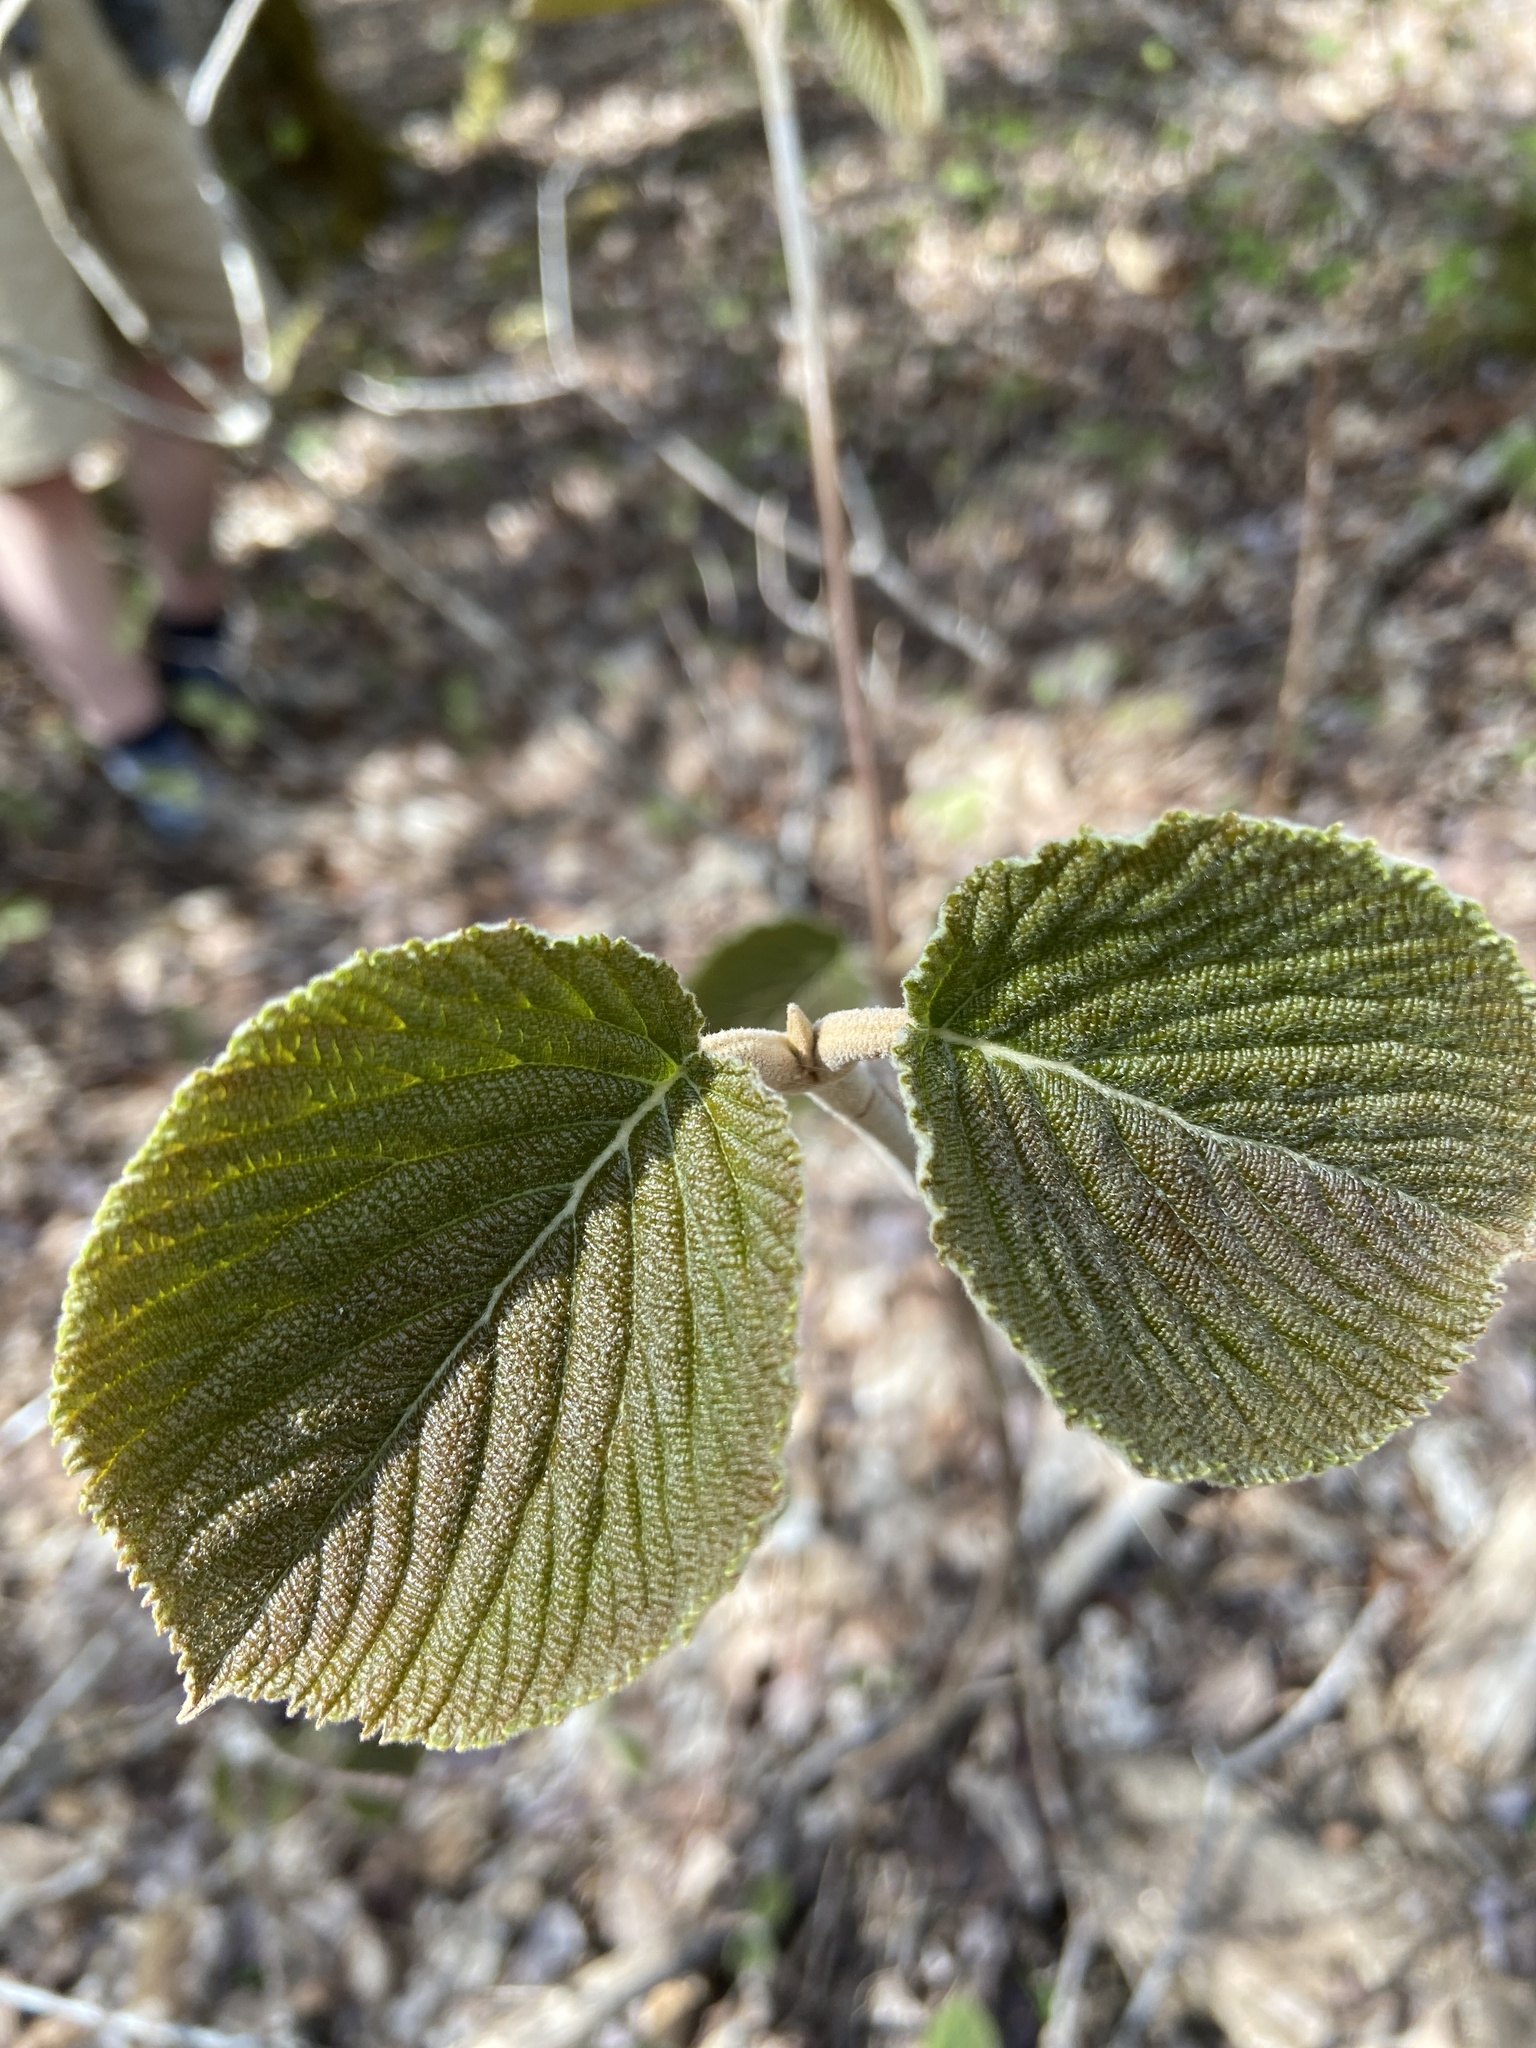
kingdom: Plantae
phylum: Tracheophyta
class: Magnoliopsida
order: Dipsacales
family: Viburnaceae
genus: Viburnum
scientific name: Viburnum lantanoides
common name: Hobblebush
